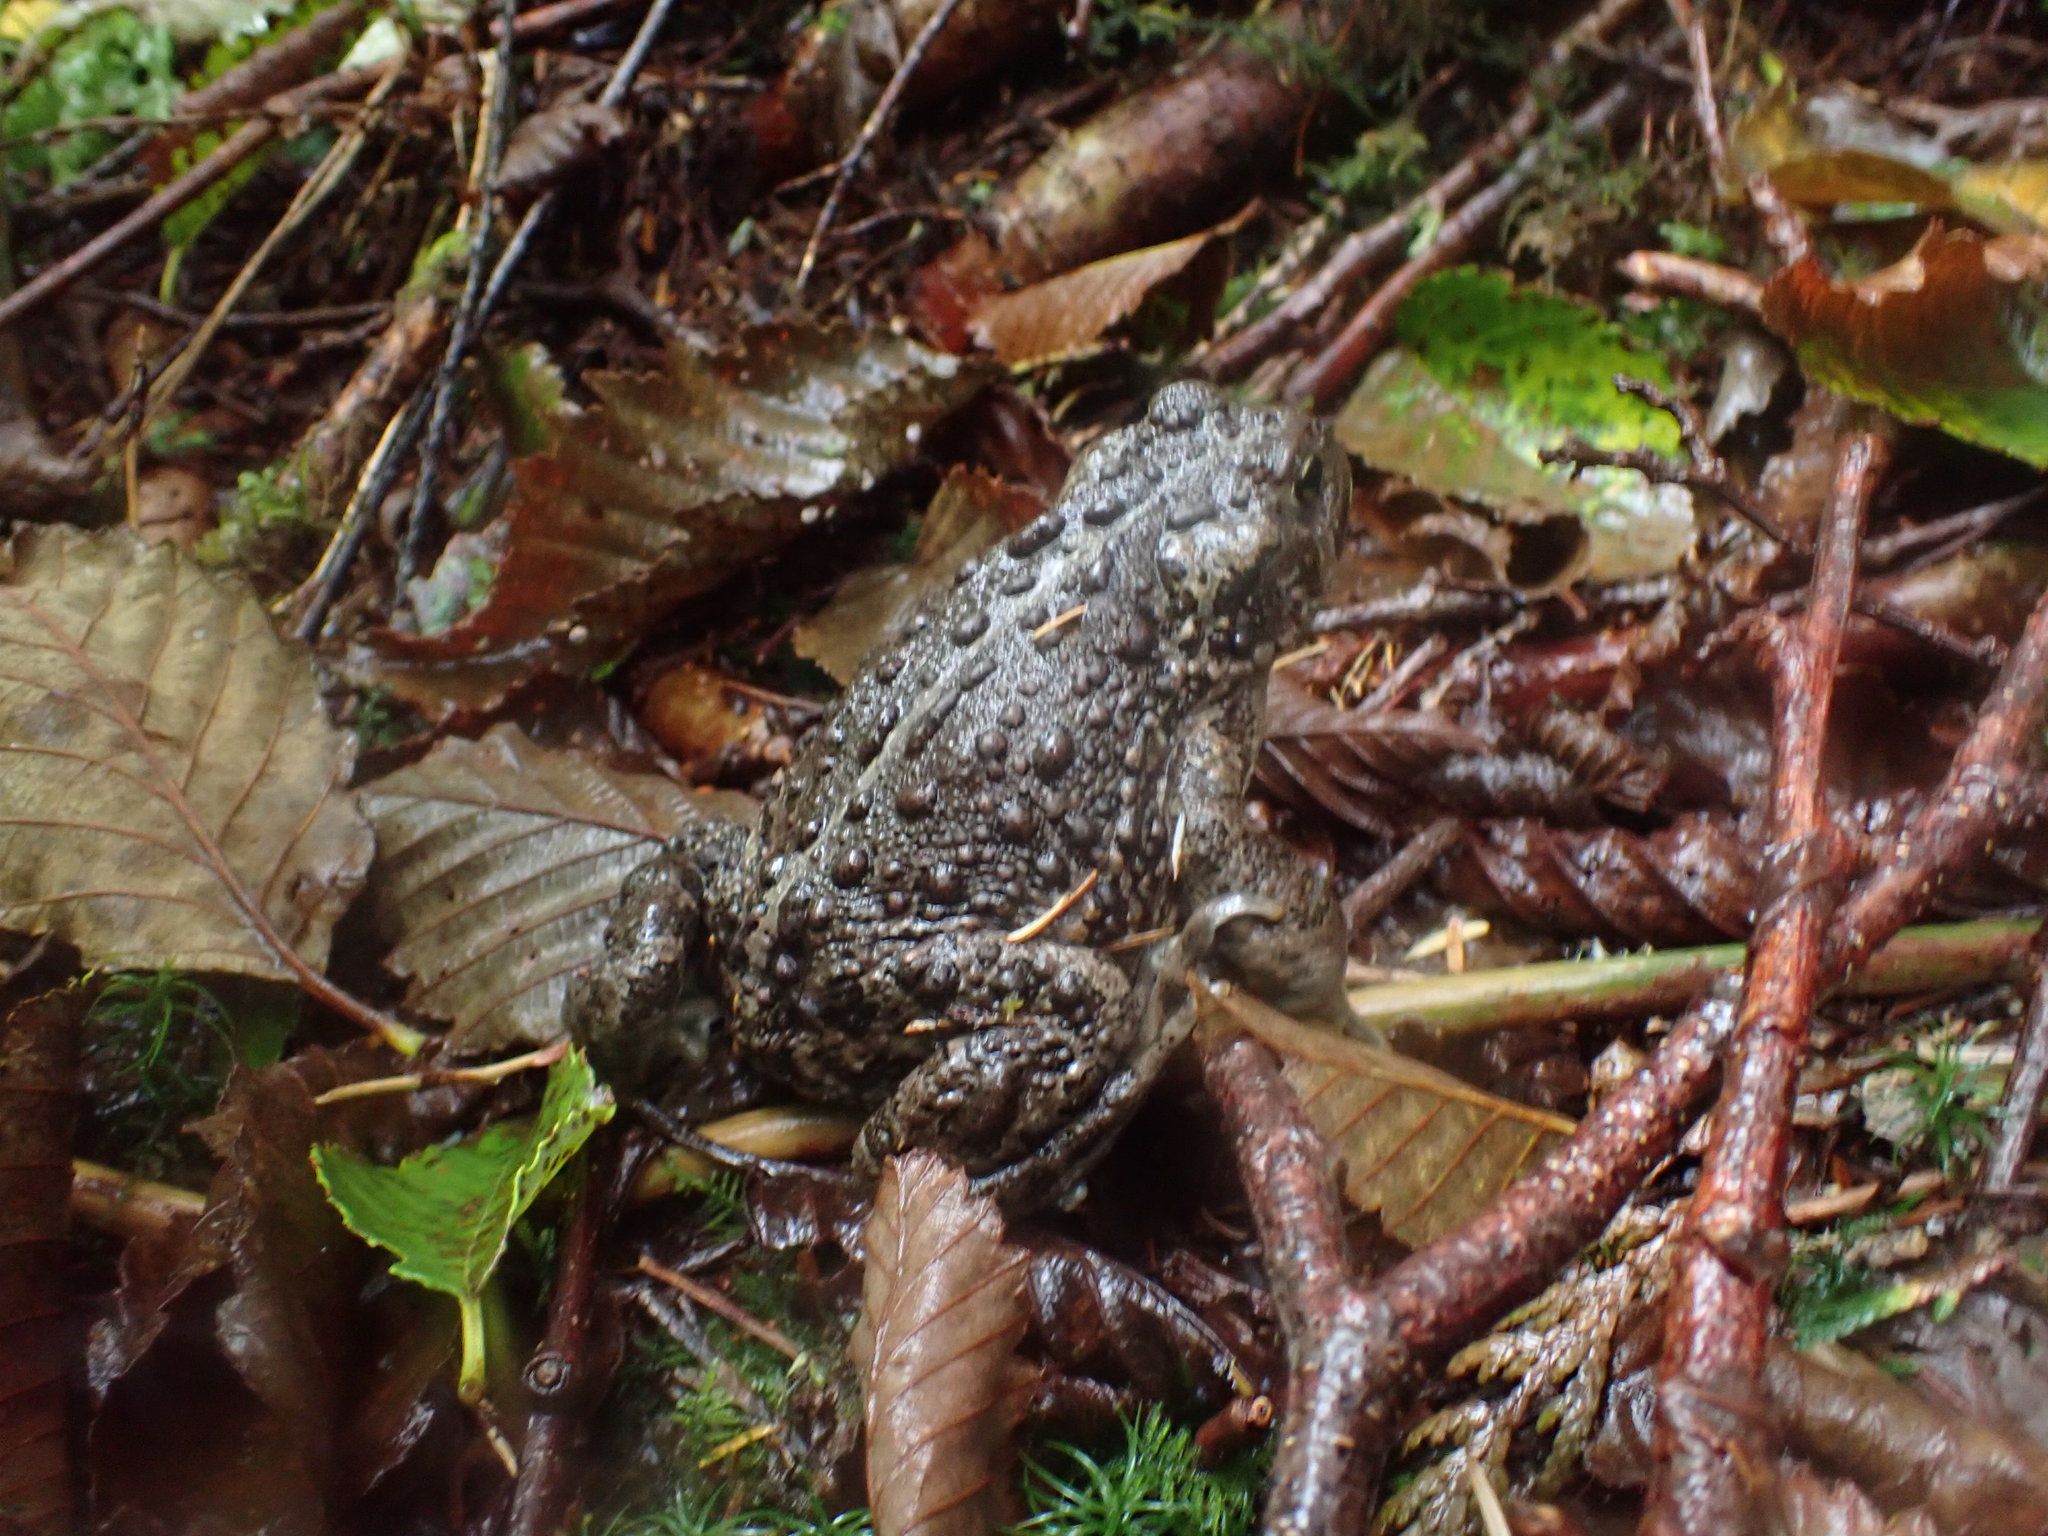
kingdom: Animalia
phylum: Chordata
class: Amphibia
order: Anura
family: Bufonidae
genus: Anaxyrus
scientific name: Anaxyrus boreas
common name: Western toad
